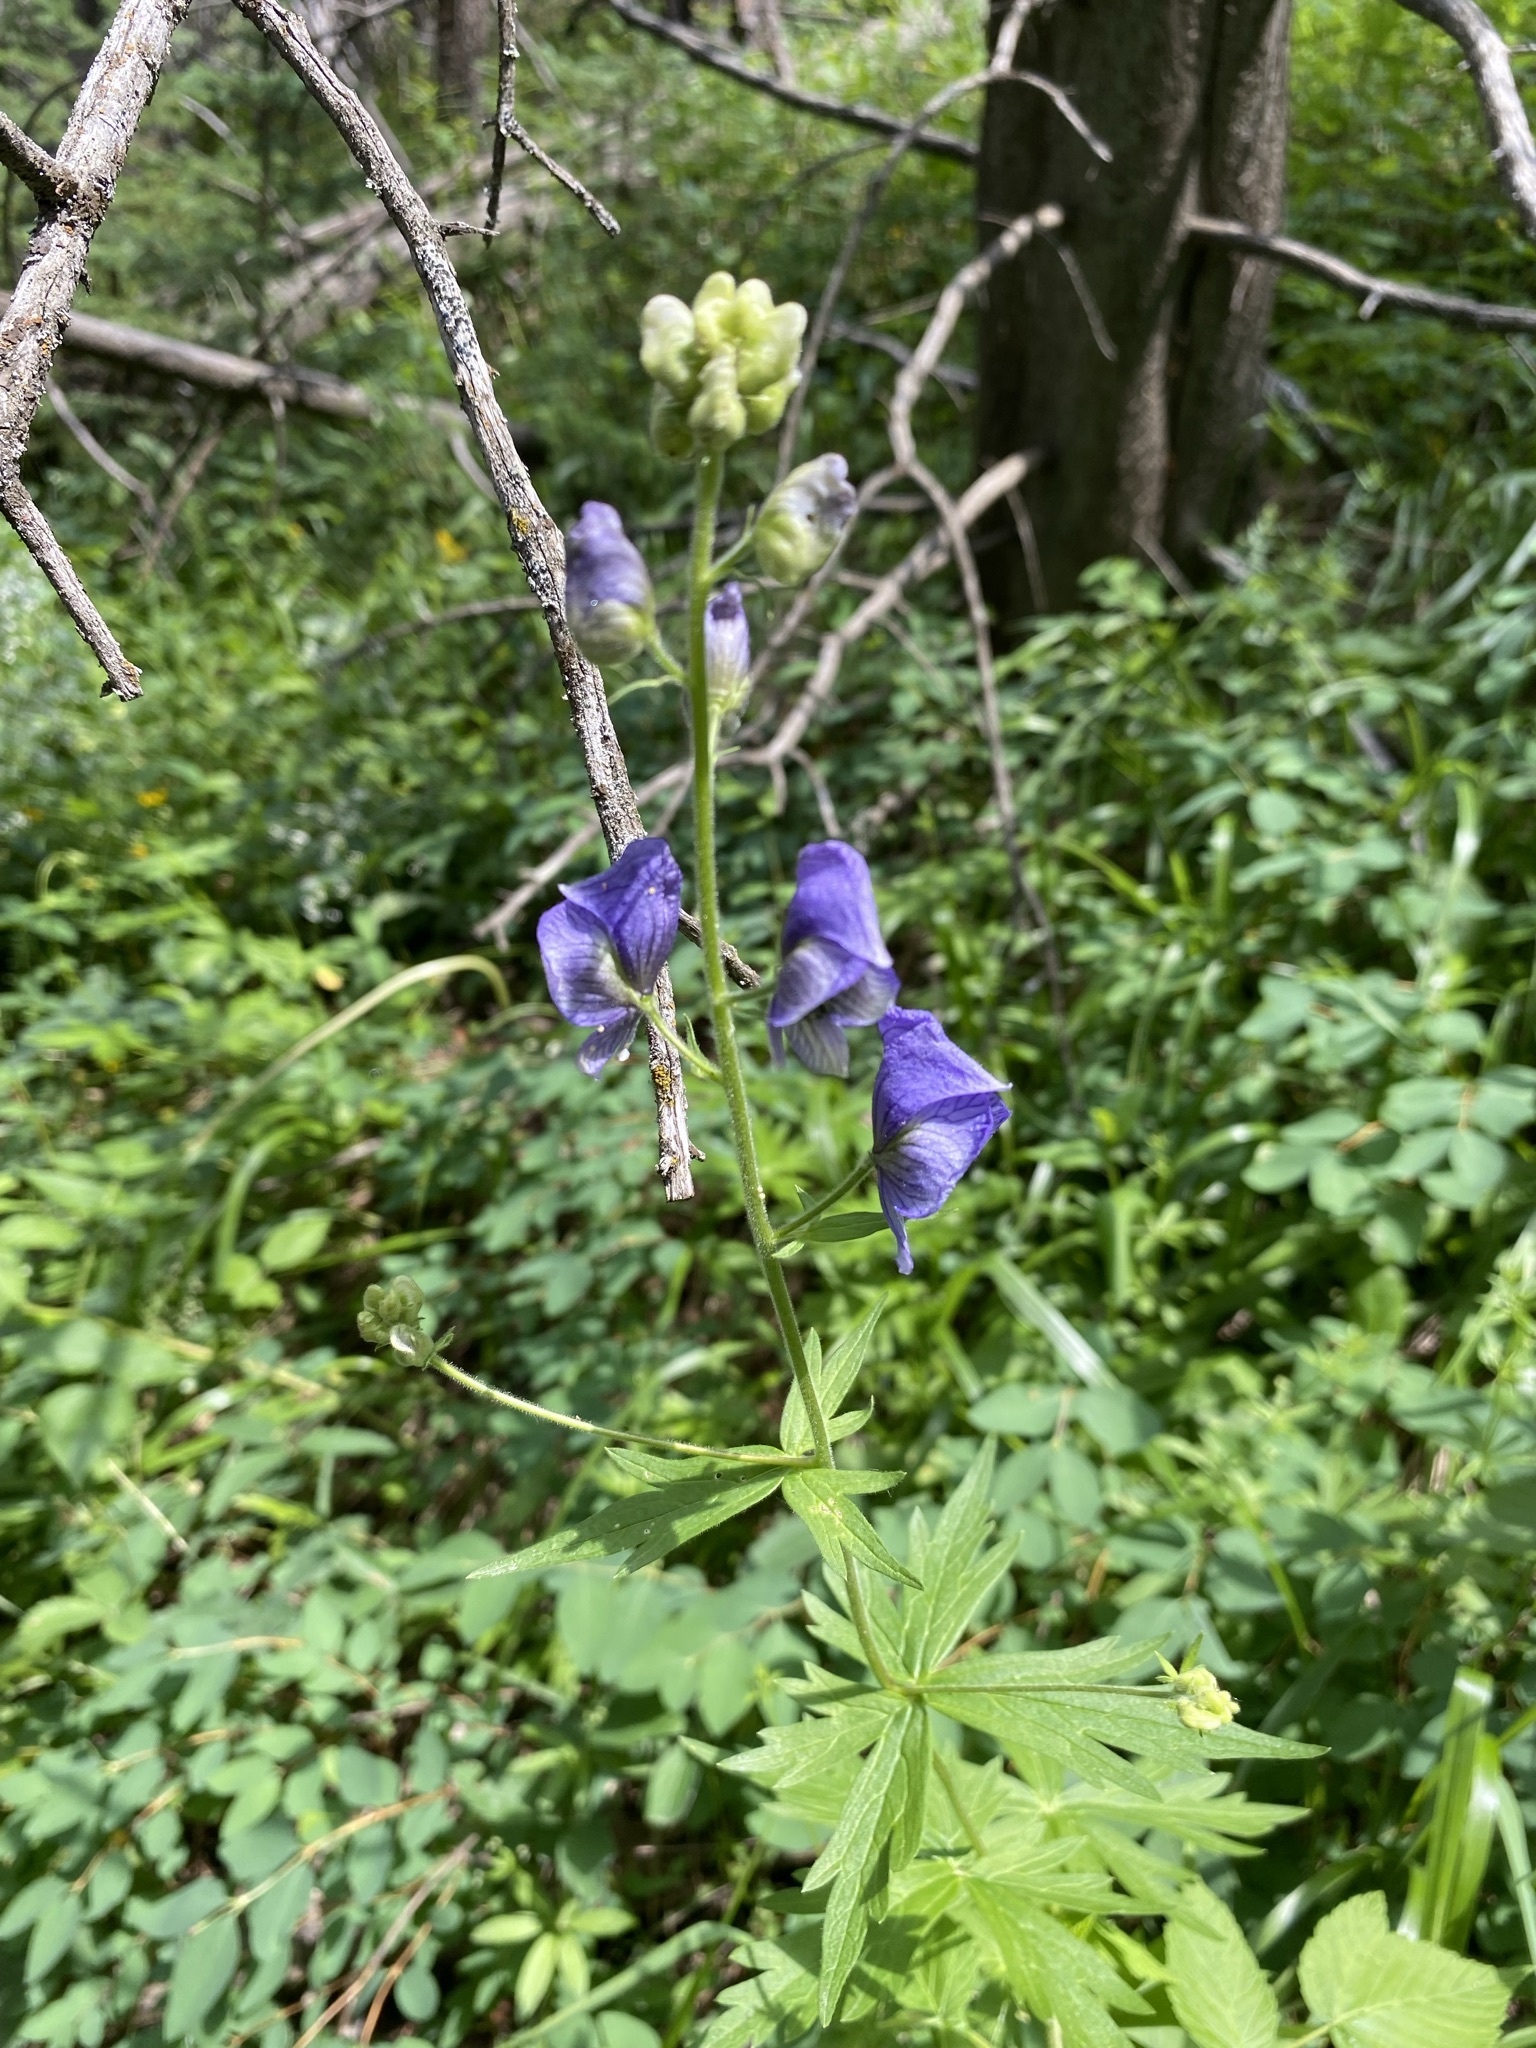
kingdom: Plantae
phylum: Tracheophyta
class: Magnoliopsida
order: Ranunculales
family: Ranunculaceae
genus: Aconitum
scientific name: Aconitum columbianum
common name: Columbia aconite
